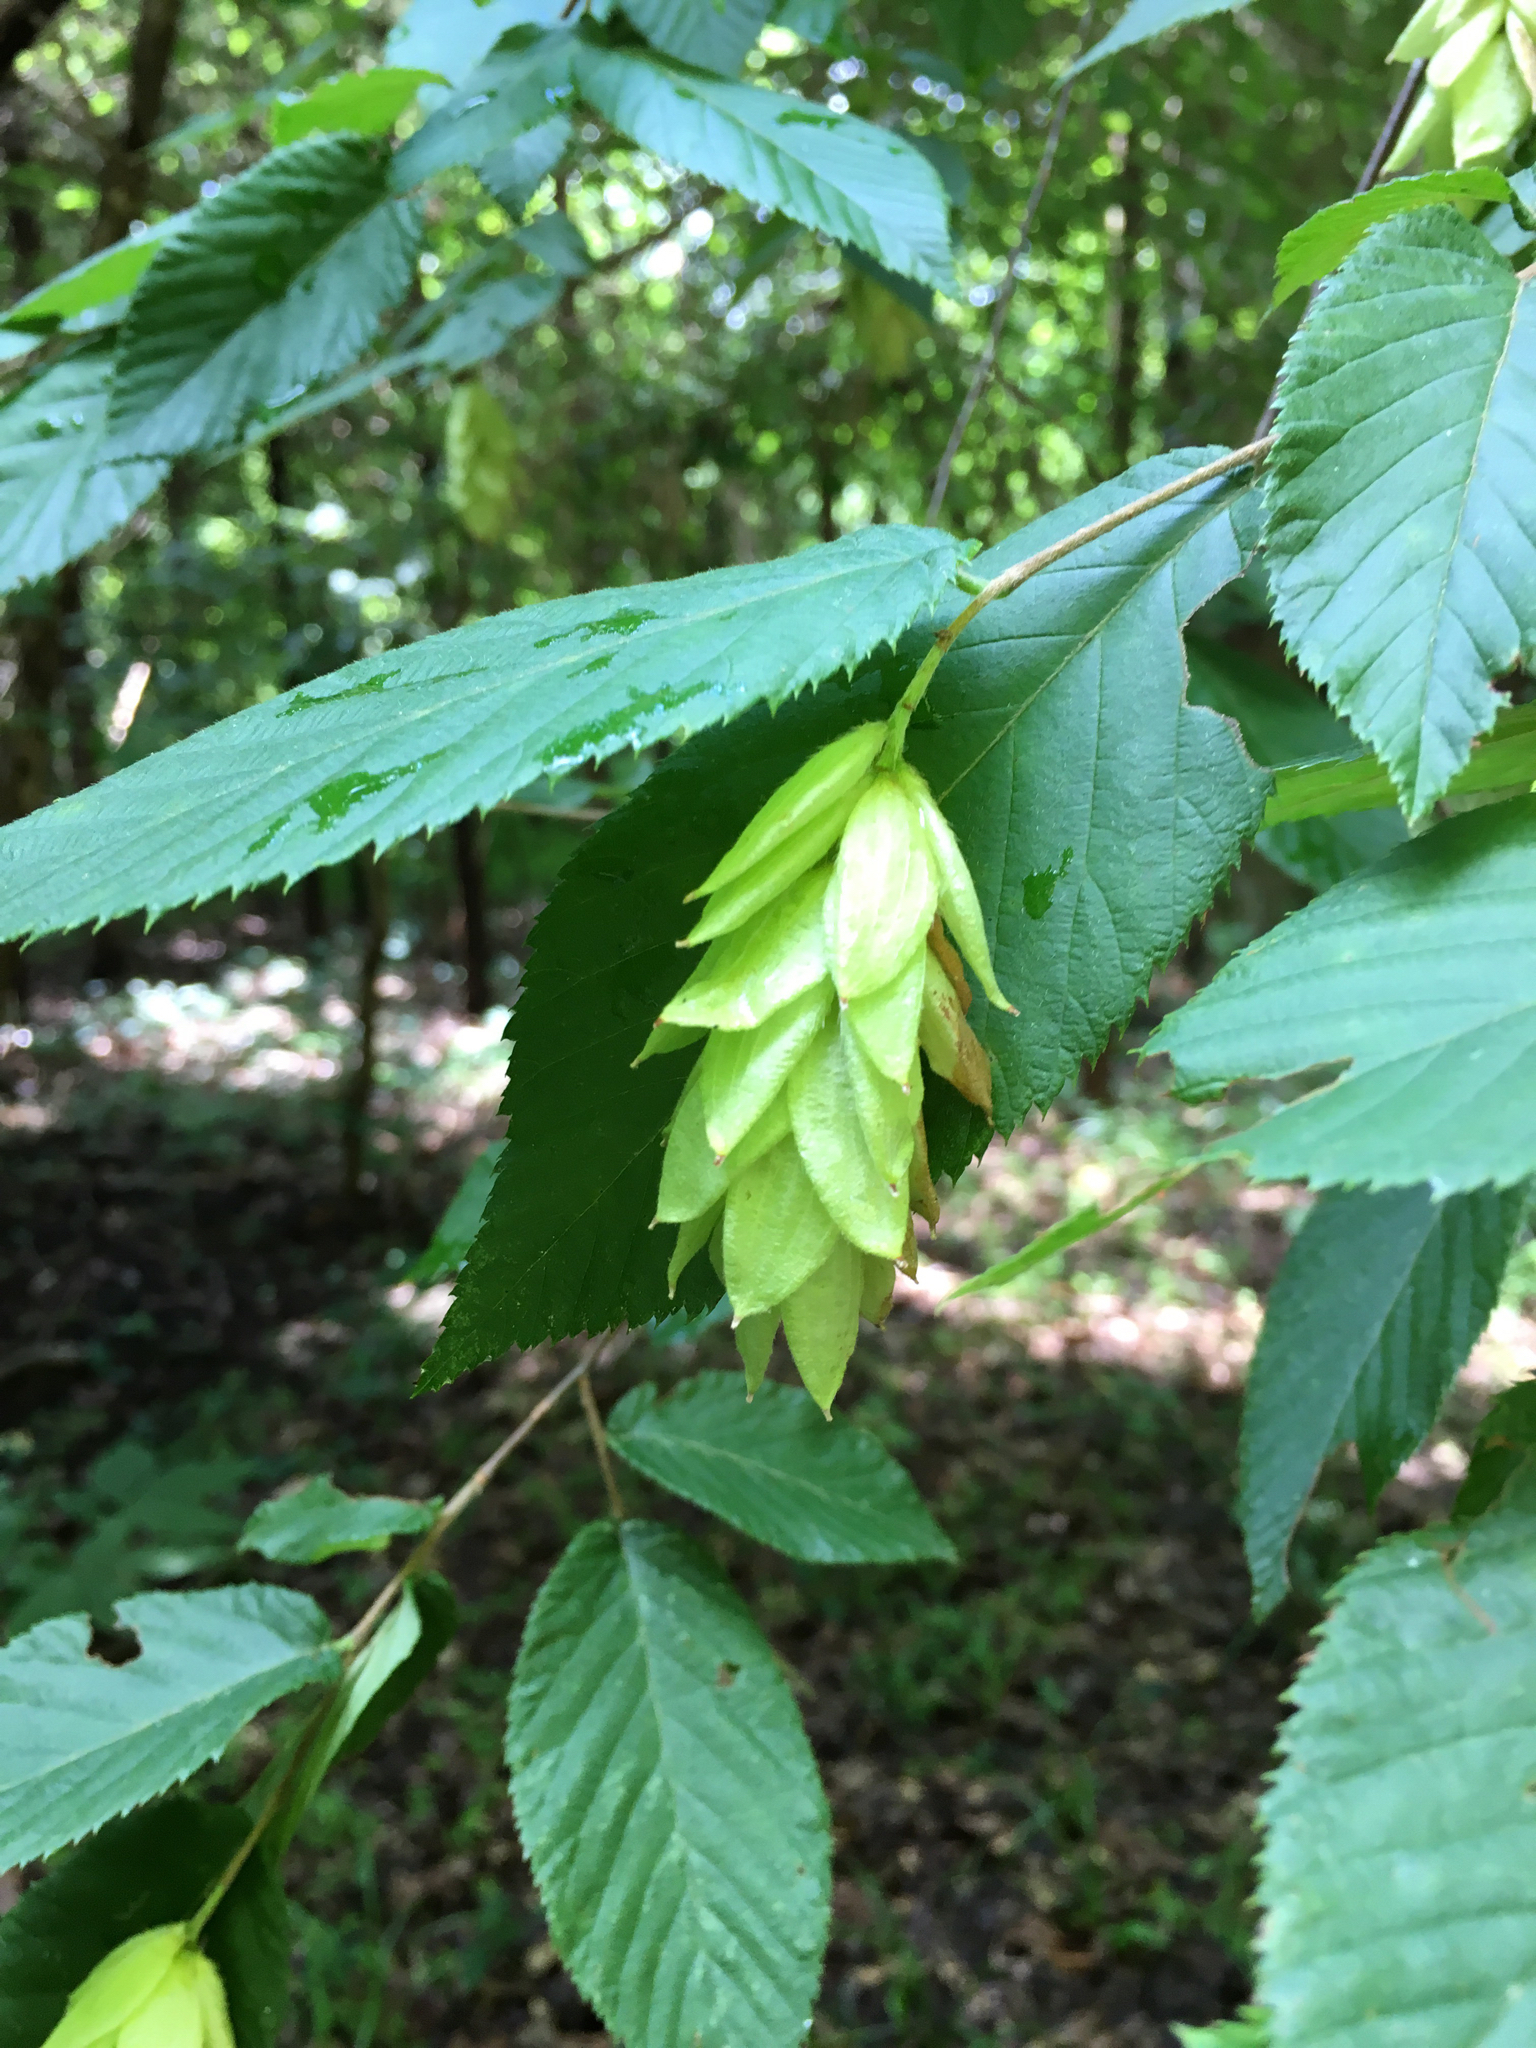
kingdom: Plantae
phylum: Tracheophyta
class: Magnoliopsida
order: Fagales
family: Betulaceae
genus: Ostrya
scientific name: Ostrya virginiana
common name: Ironwood
